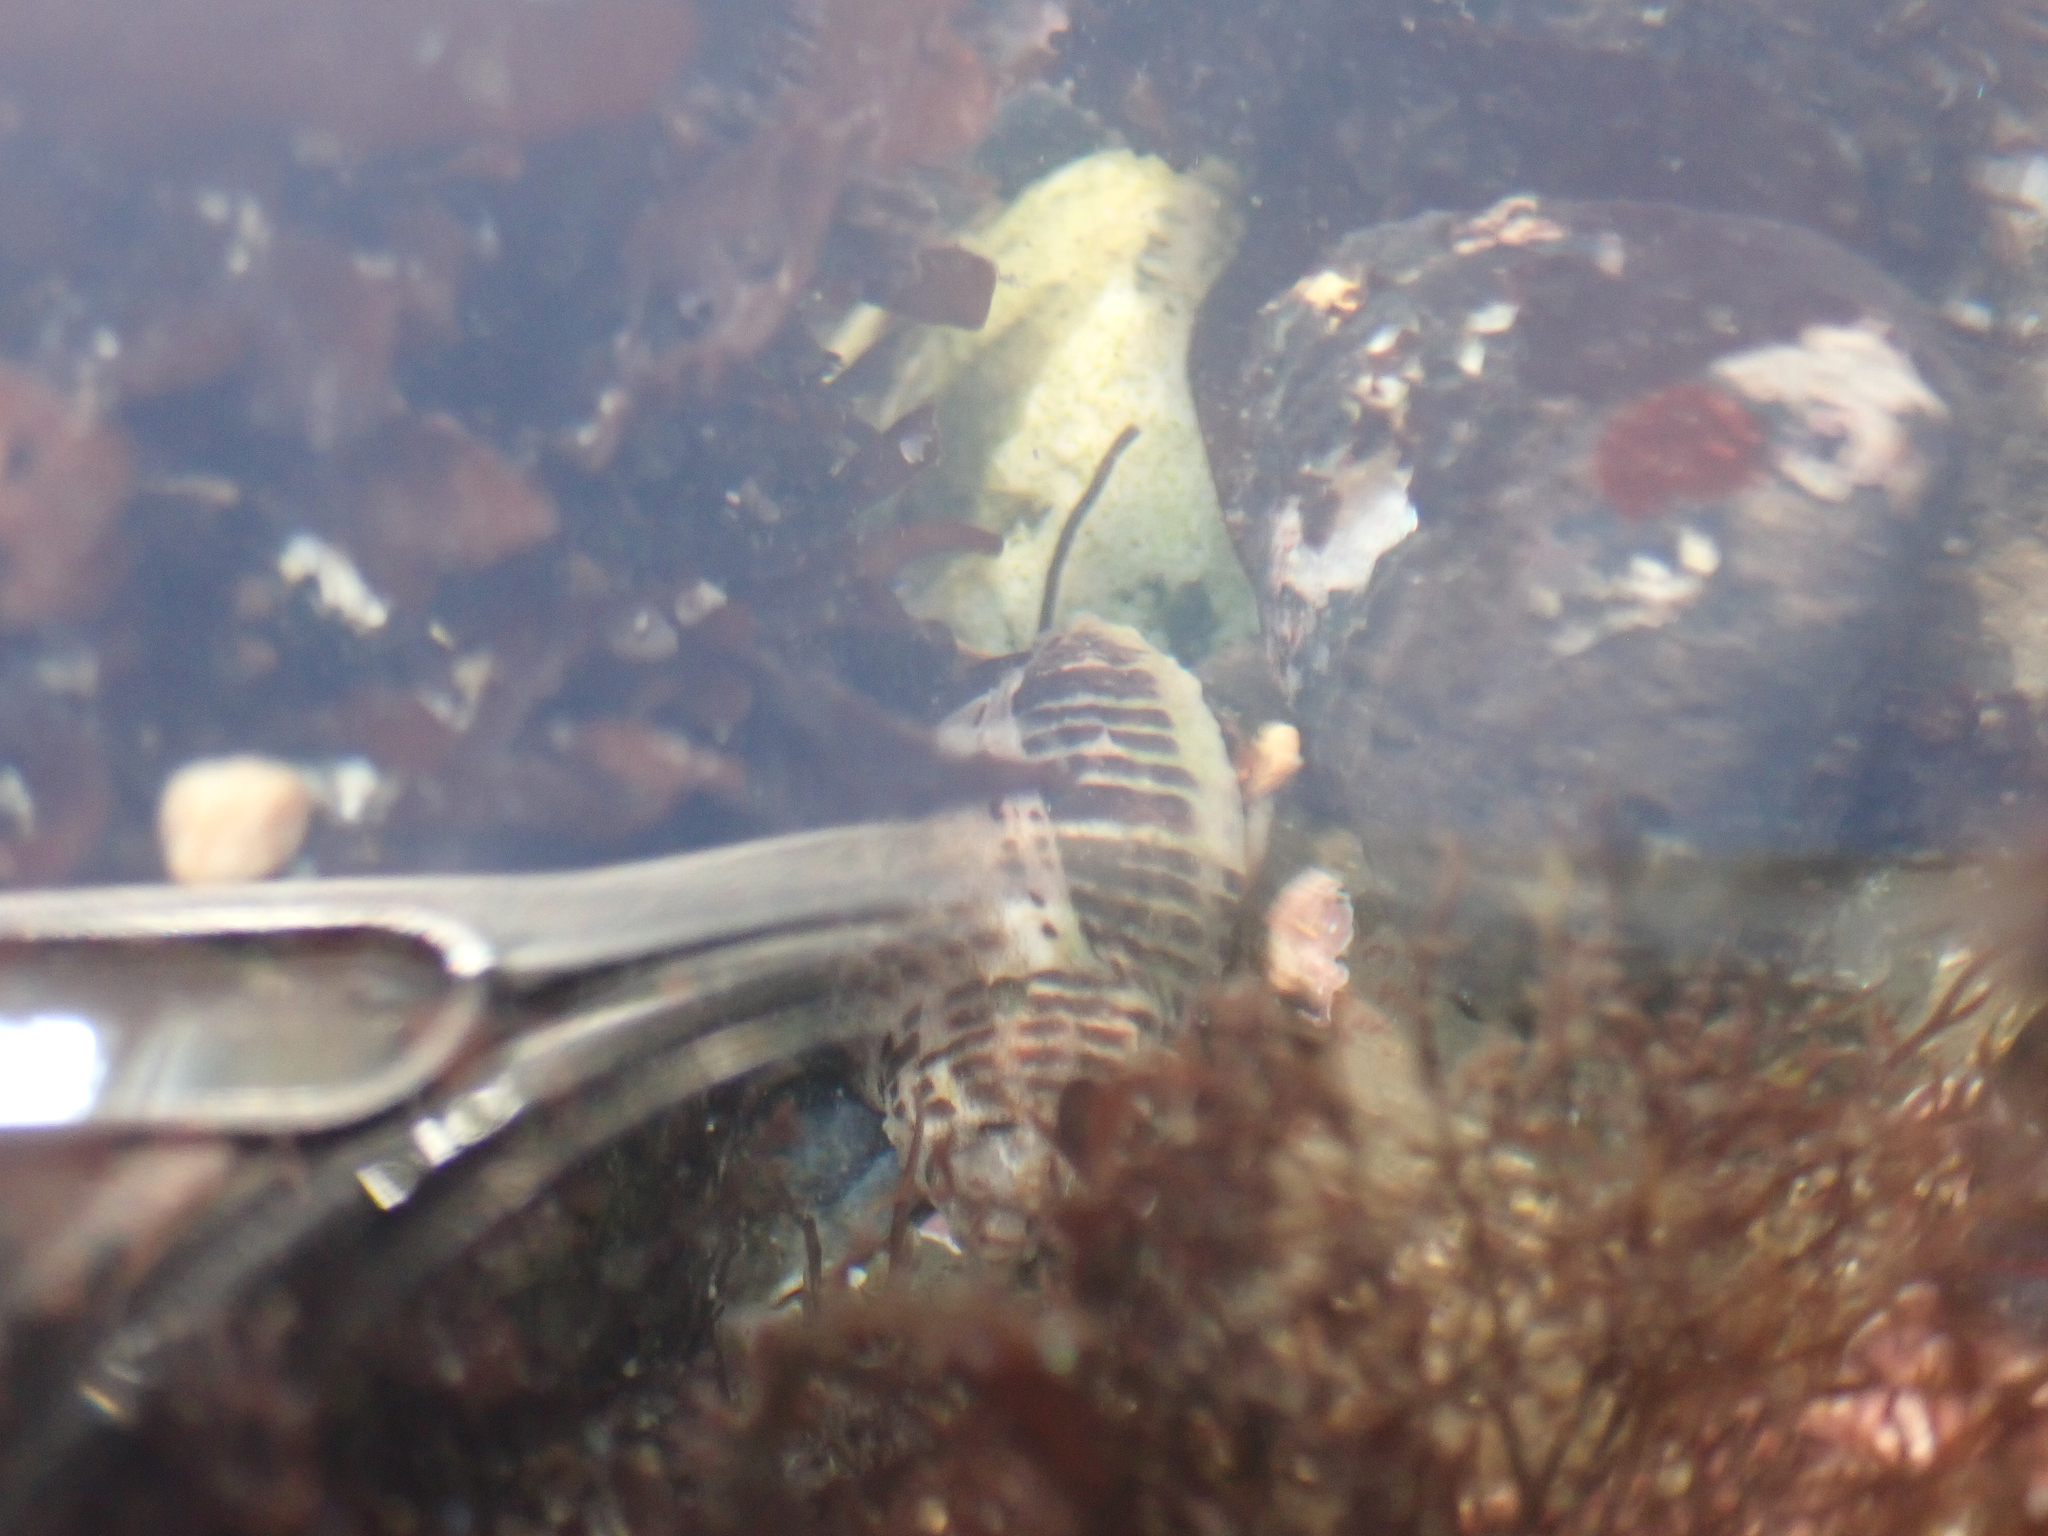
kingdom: Animalia
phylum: Mollusca
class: Gastropoda
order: Neogastropoda
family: Muricidae
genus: Acanthinucella
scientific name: Acanthinucella spirata
